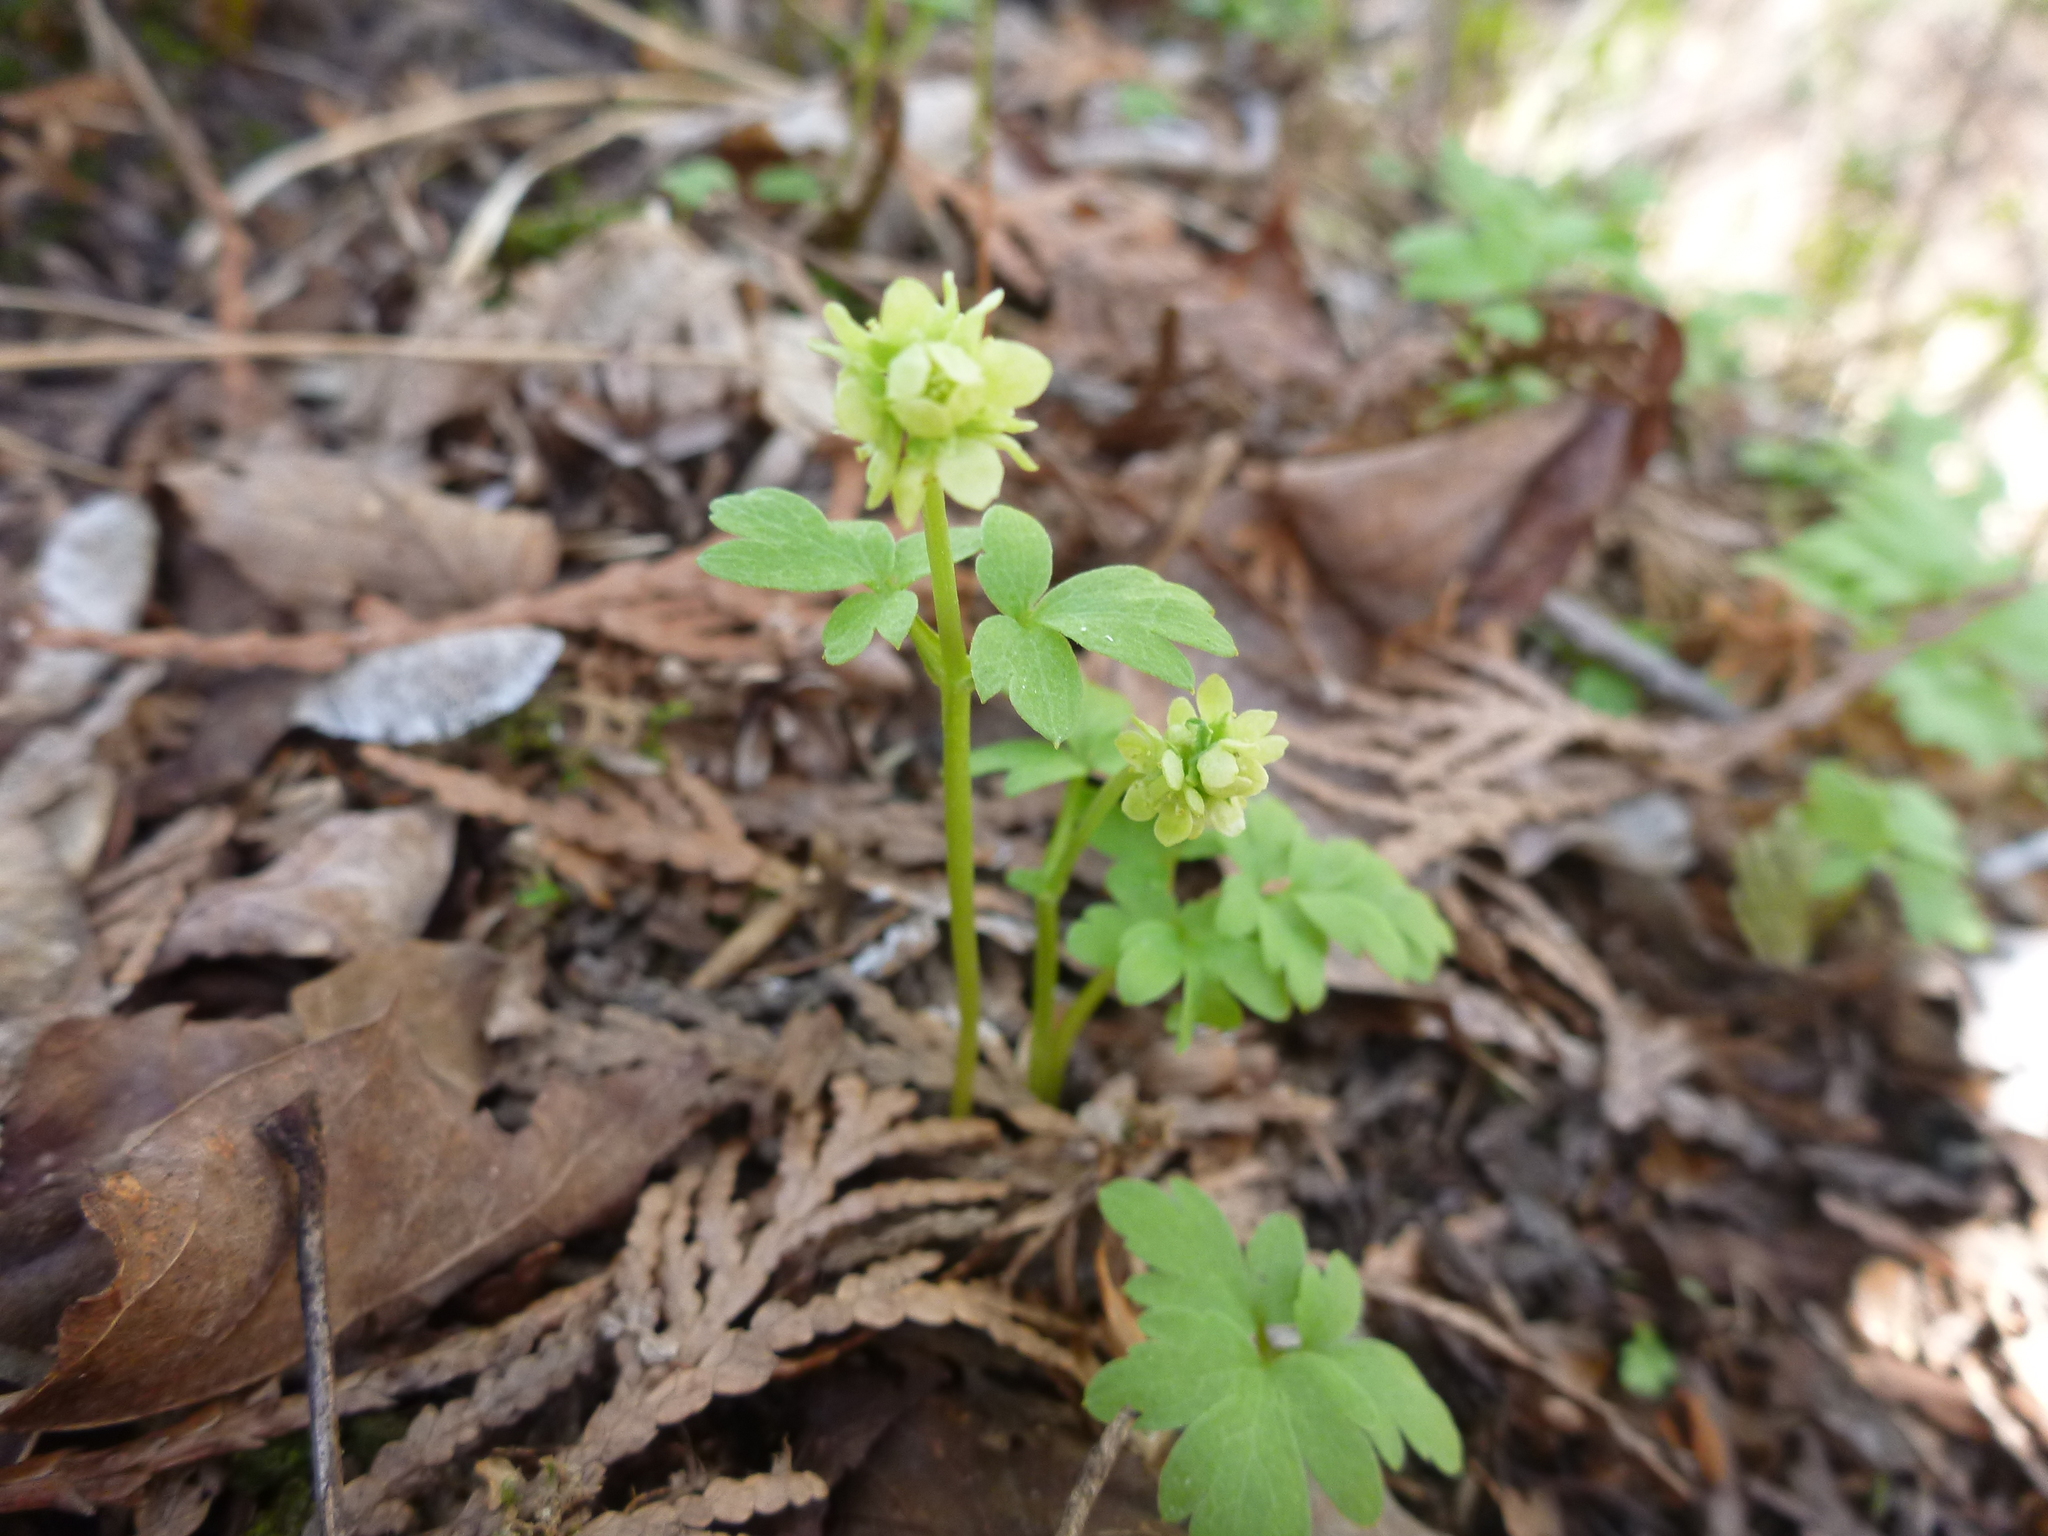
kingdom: Plantae
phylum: Tracheophyta
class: Magnoliopsida
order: Dipsacales
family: Viburnaceae
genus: Adoxa
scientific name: Adoxa moschatellina
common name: Moschatel
